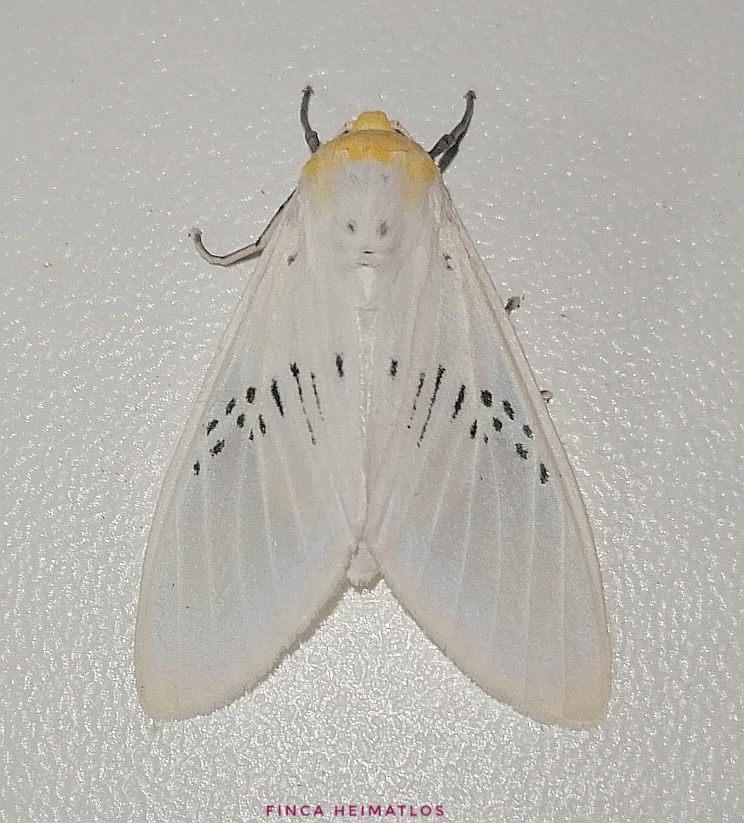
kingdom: Animalia
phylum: Arthropoda
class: Insecta
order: Lepidoptera
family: Erebidae
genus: Idalus
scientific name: Idalus fasciipuncta
